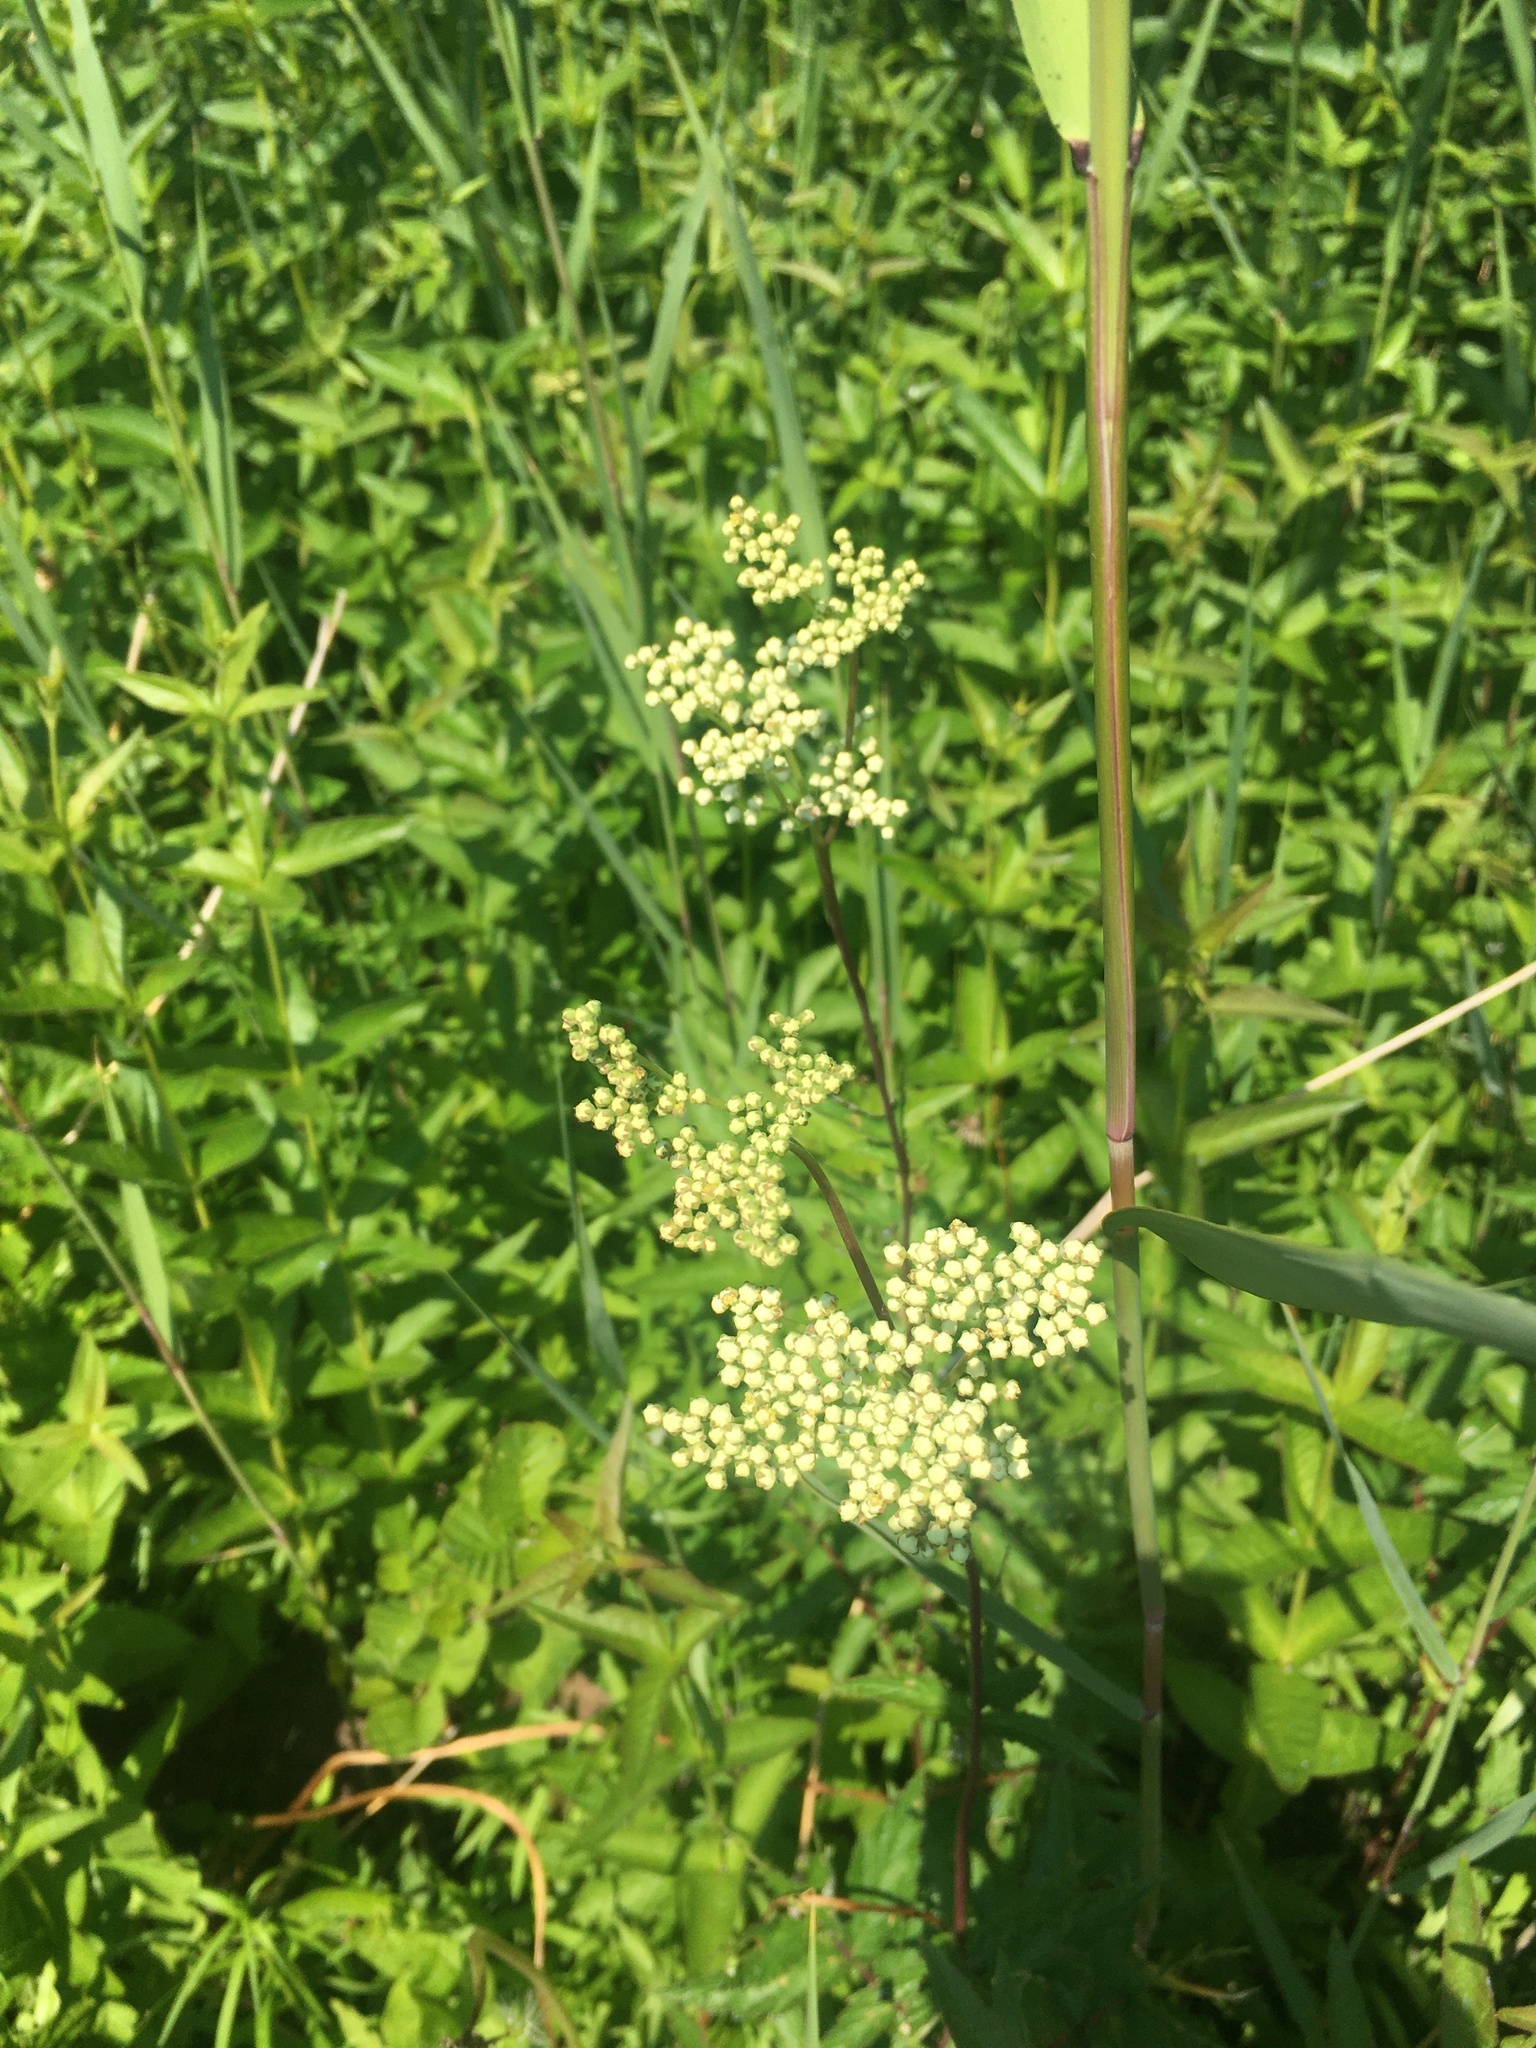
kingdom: Plantae
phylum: Tracheophyta
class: Magnoliopsida
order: Rosales
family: Rosaceae
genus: Filipendula
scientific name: Filipendula ulmaria
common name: Meadowsweet
